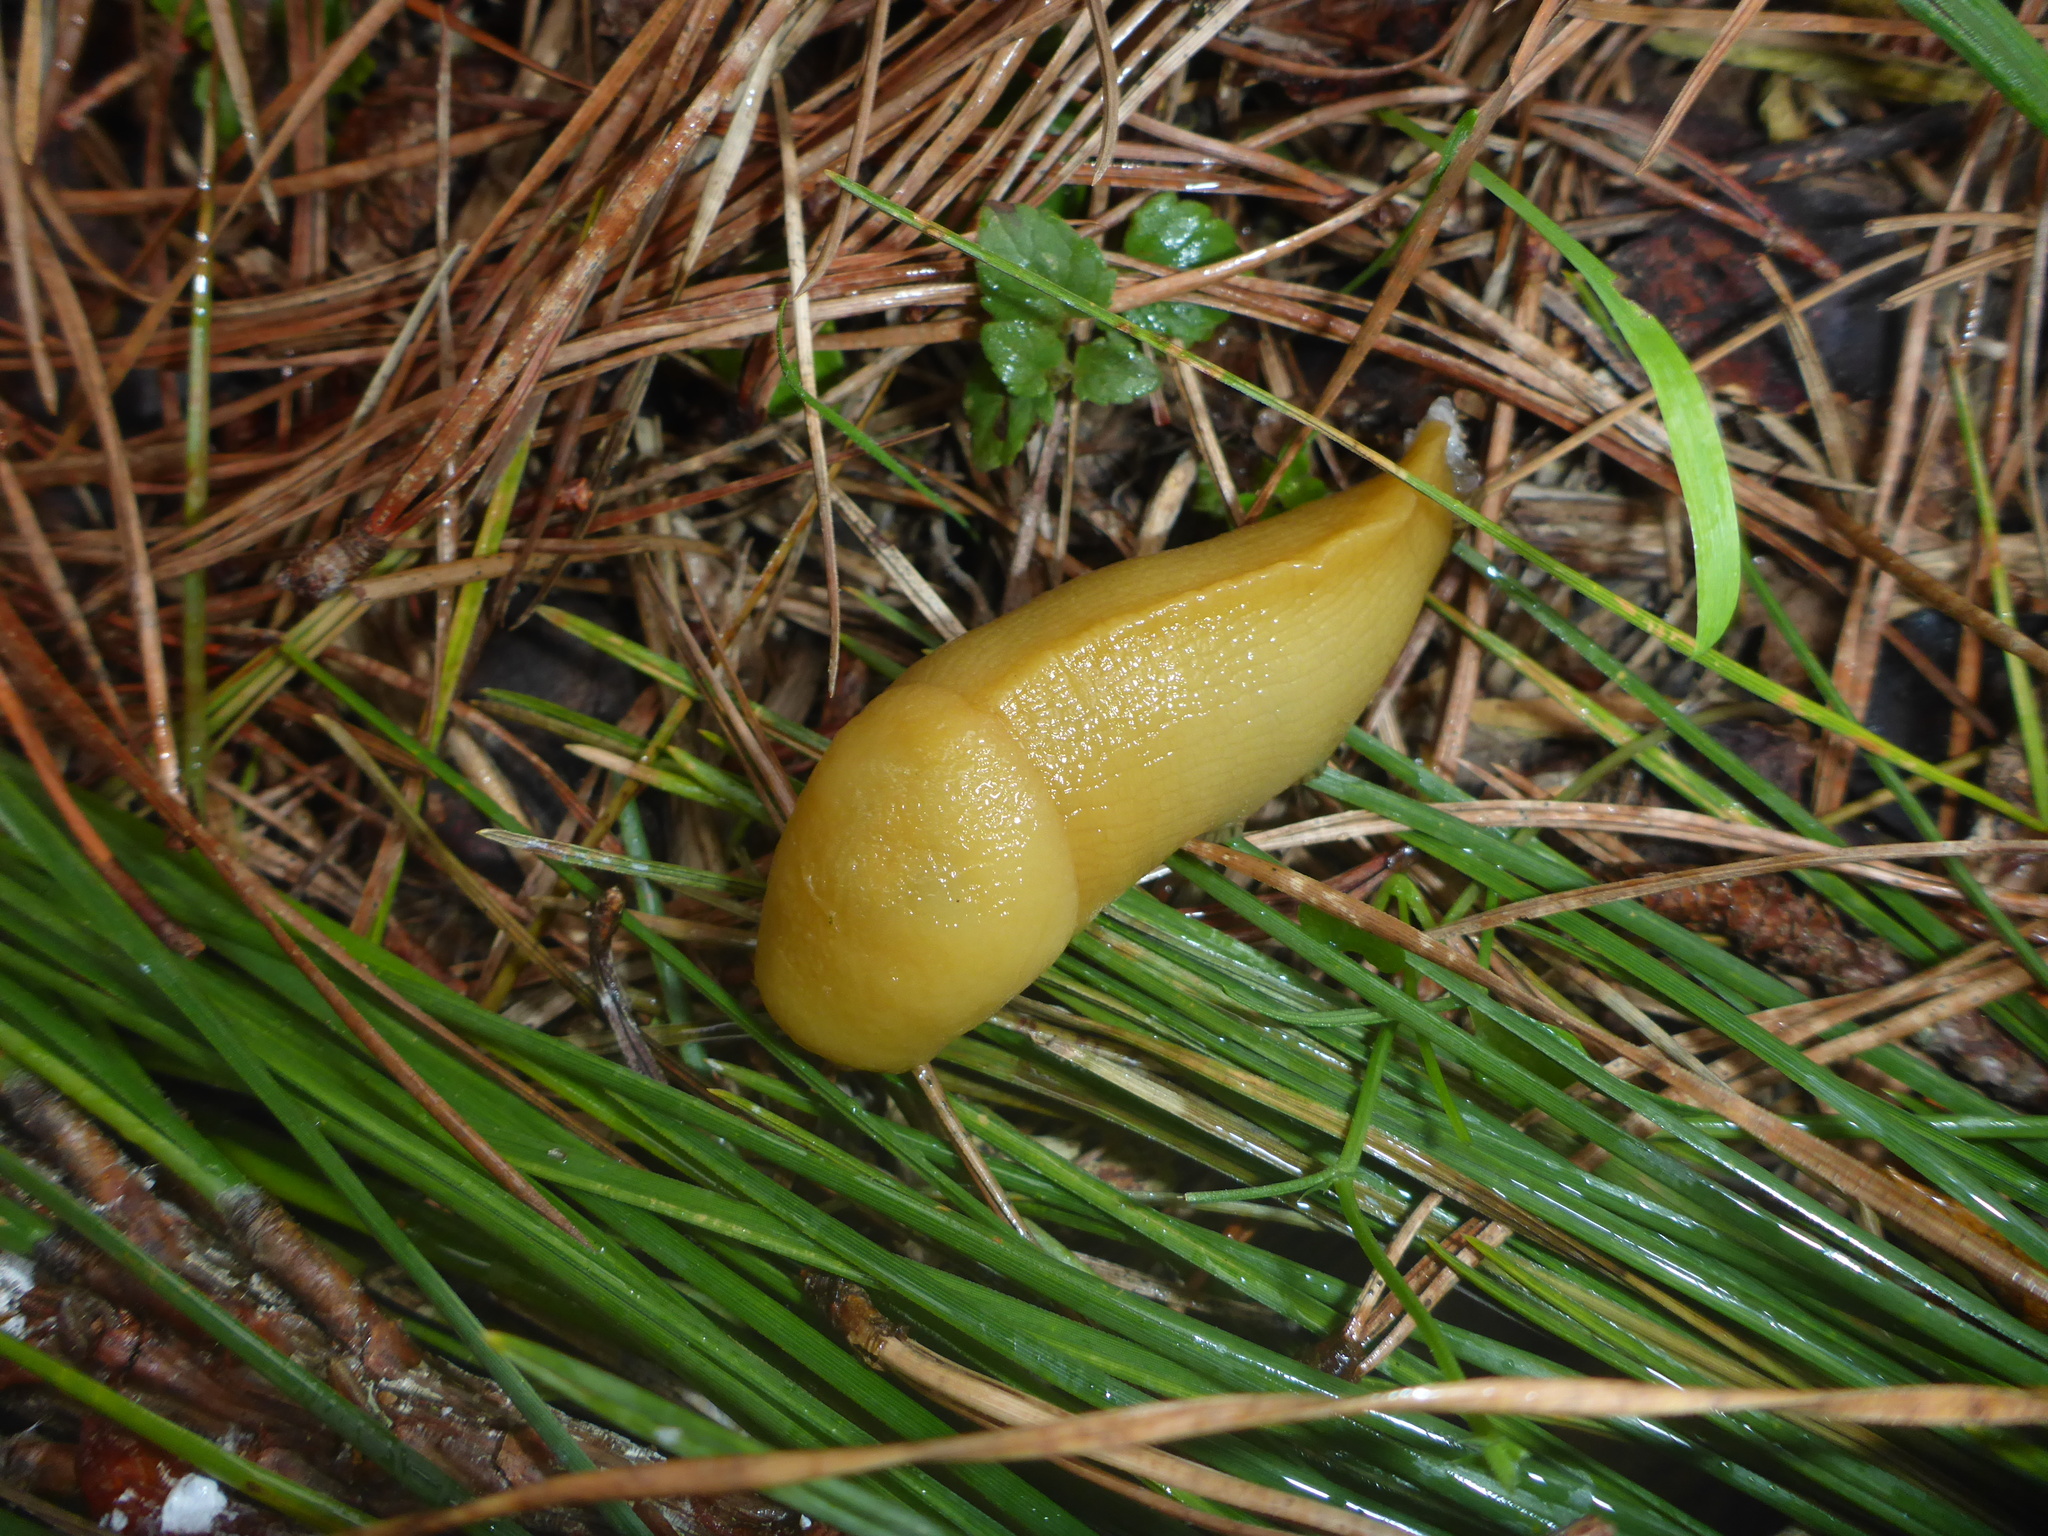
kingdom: Animalia
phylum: Mollusca
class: Gastropoda
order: Stylommatophora
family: Ariolimacidae
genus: Ariolimax
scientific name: Ariolimax californicus
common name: California banana slug
